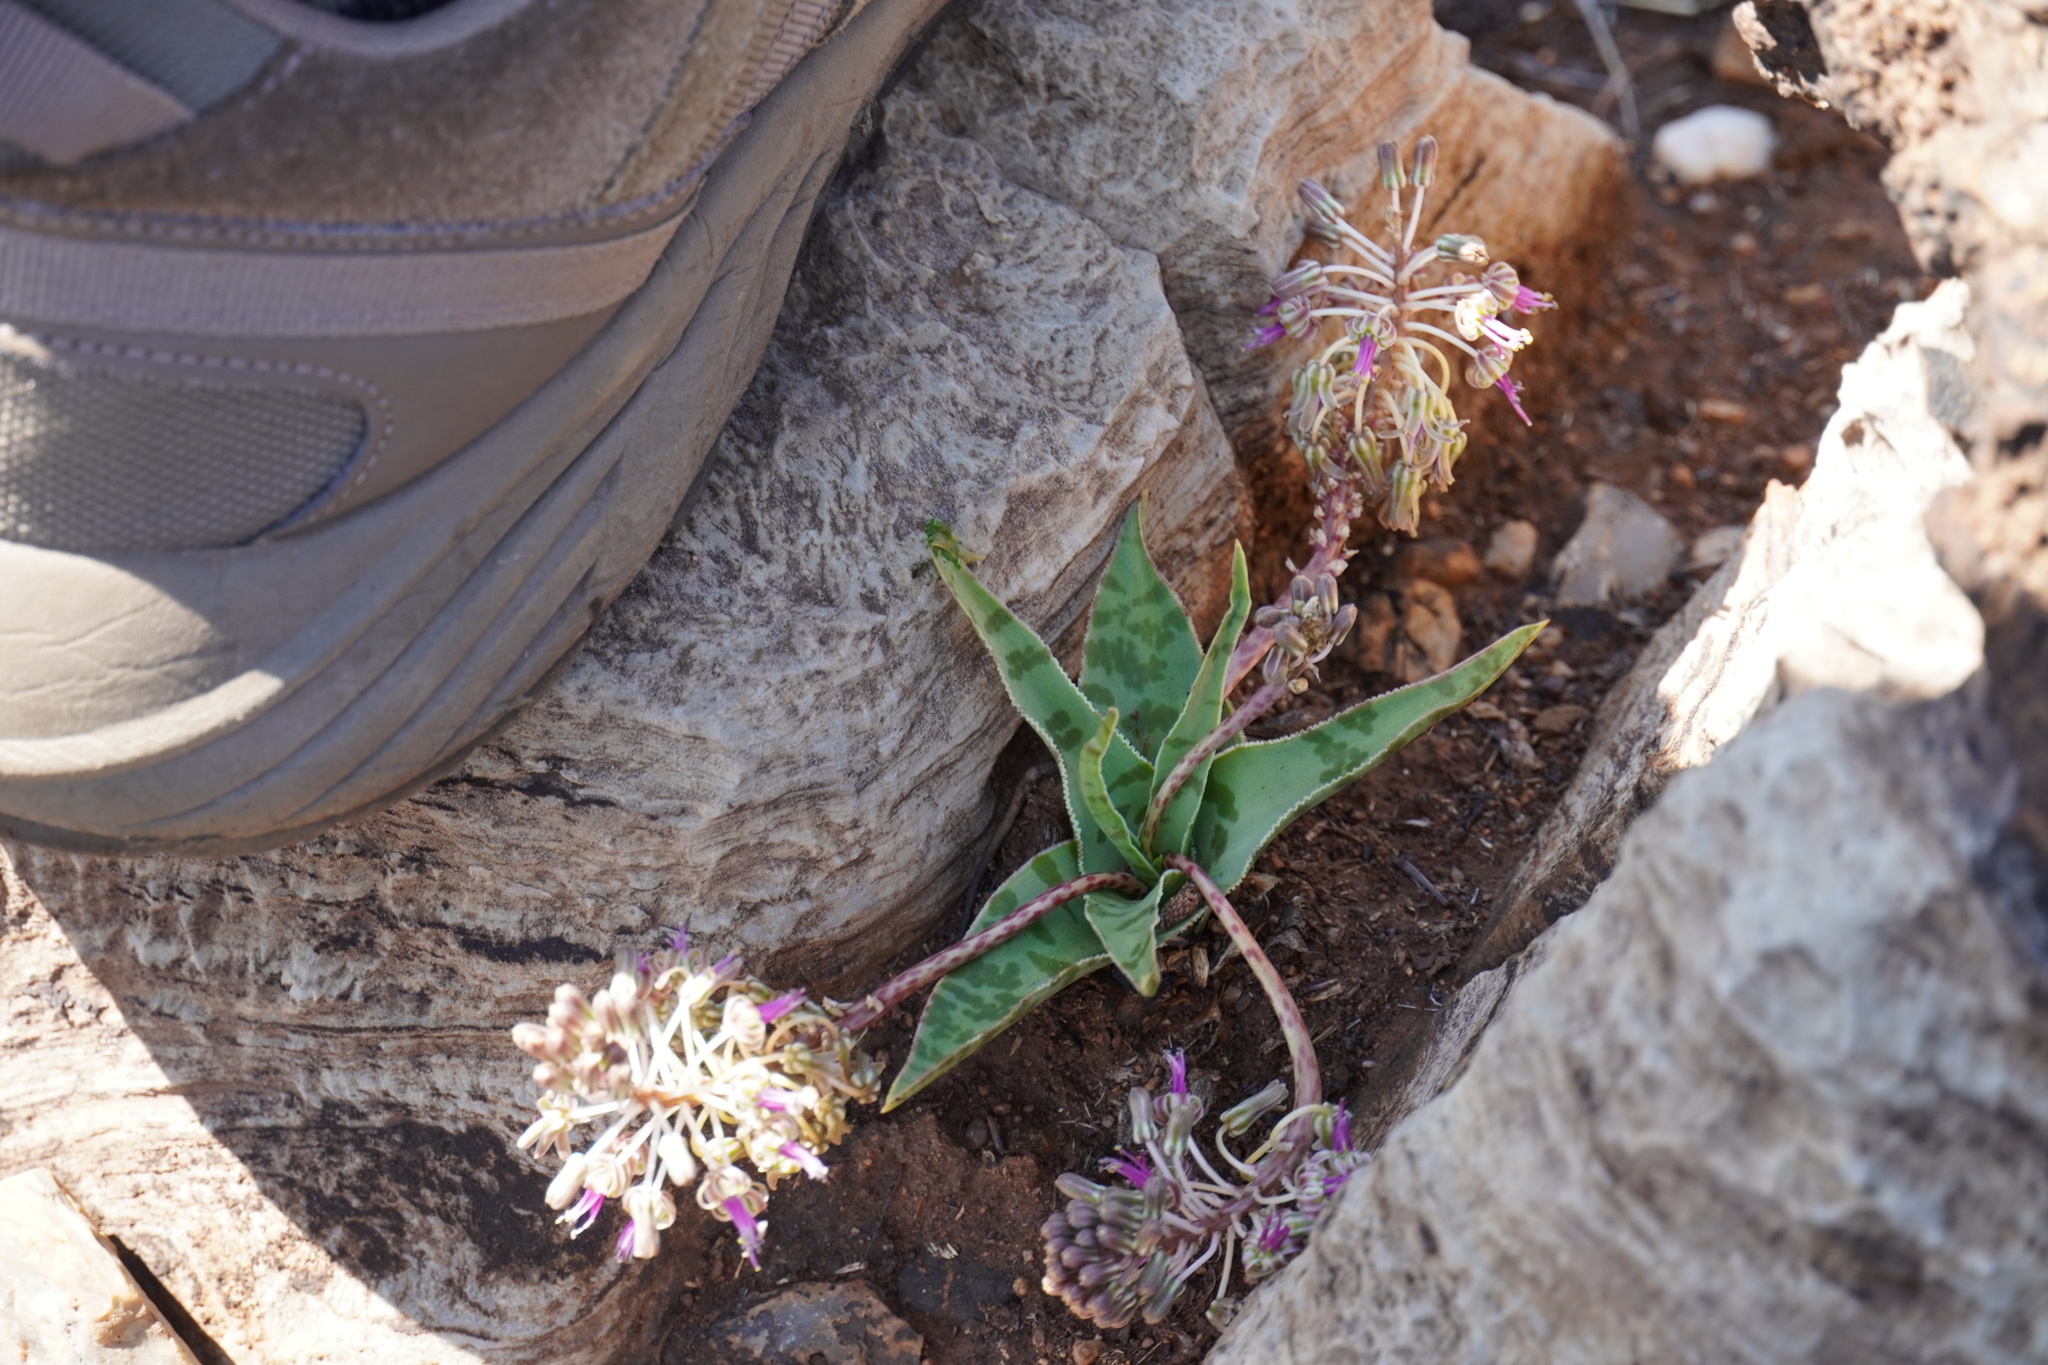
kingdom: Plantae
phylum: Tracheophyta
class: Liliopsida
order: Asparagales
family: Asparagaceae
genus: Ledebouria
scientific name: Ledebouria luteola
